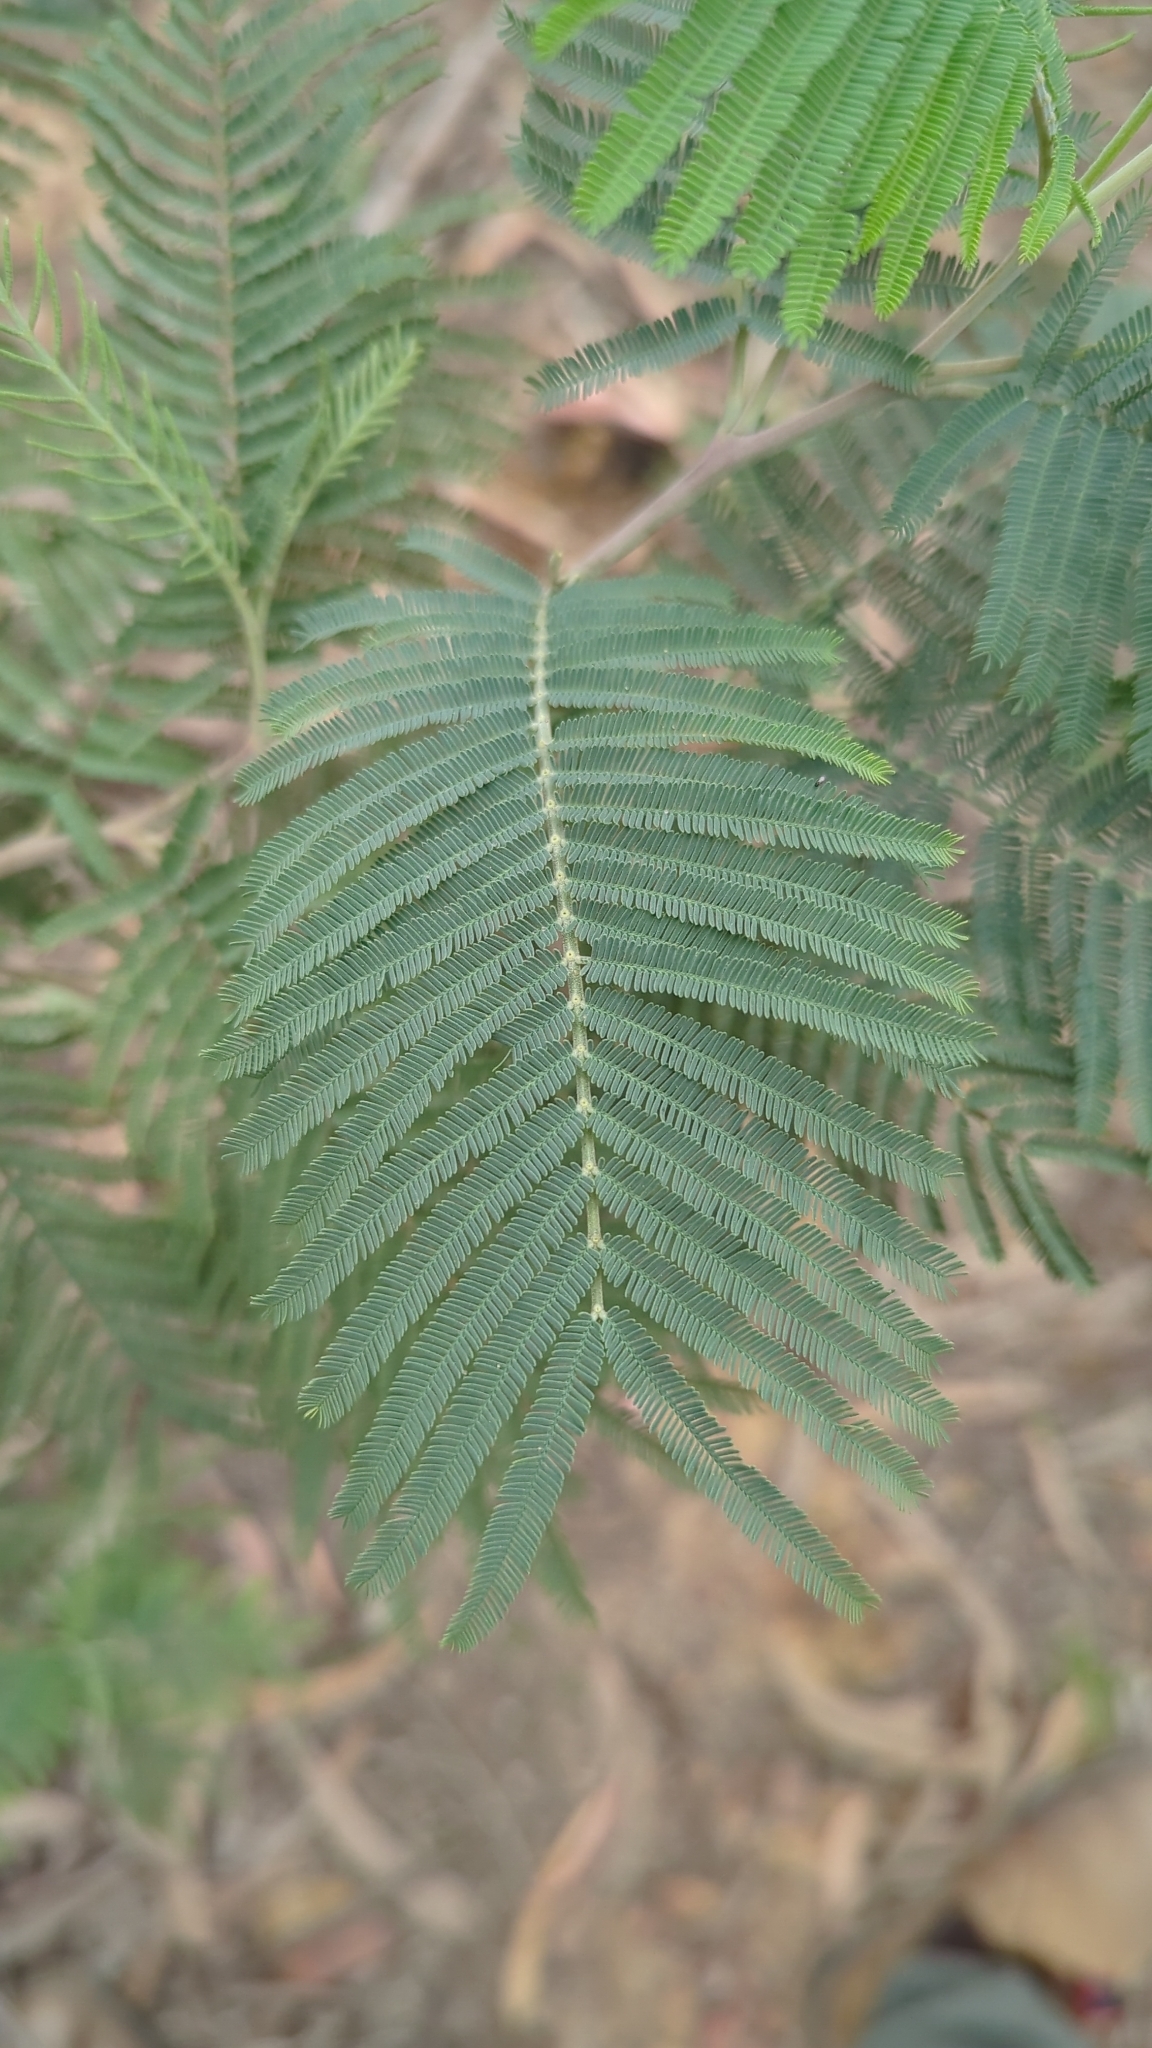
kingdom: Plantae
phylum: Tracheophyta
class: Magnoliopsida
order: Fabales
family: Fabaceae
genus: Acacia
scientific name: Acacia dealbata
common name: Silver wattle
